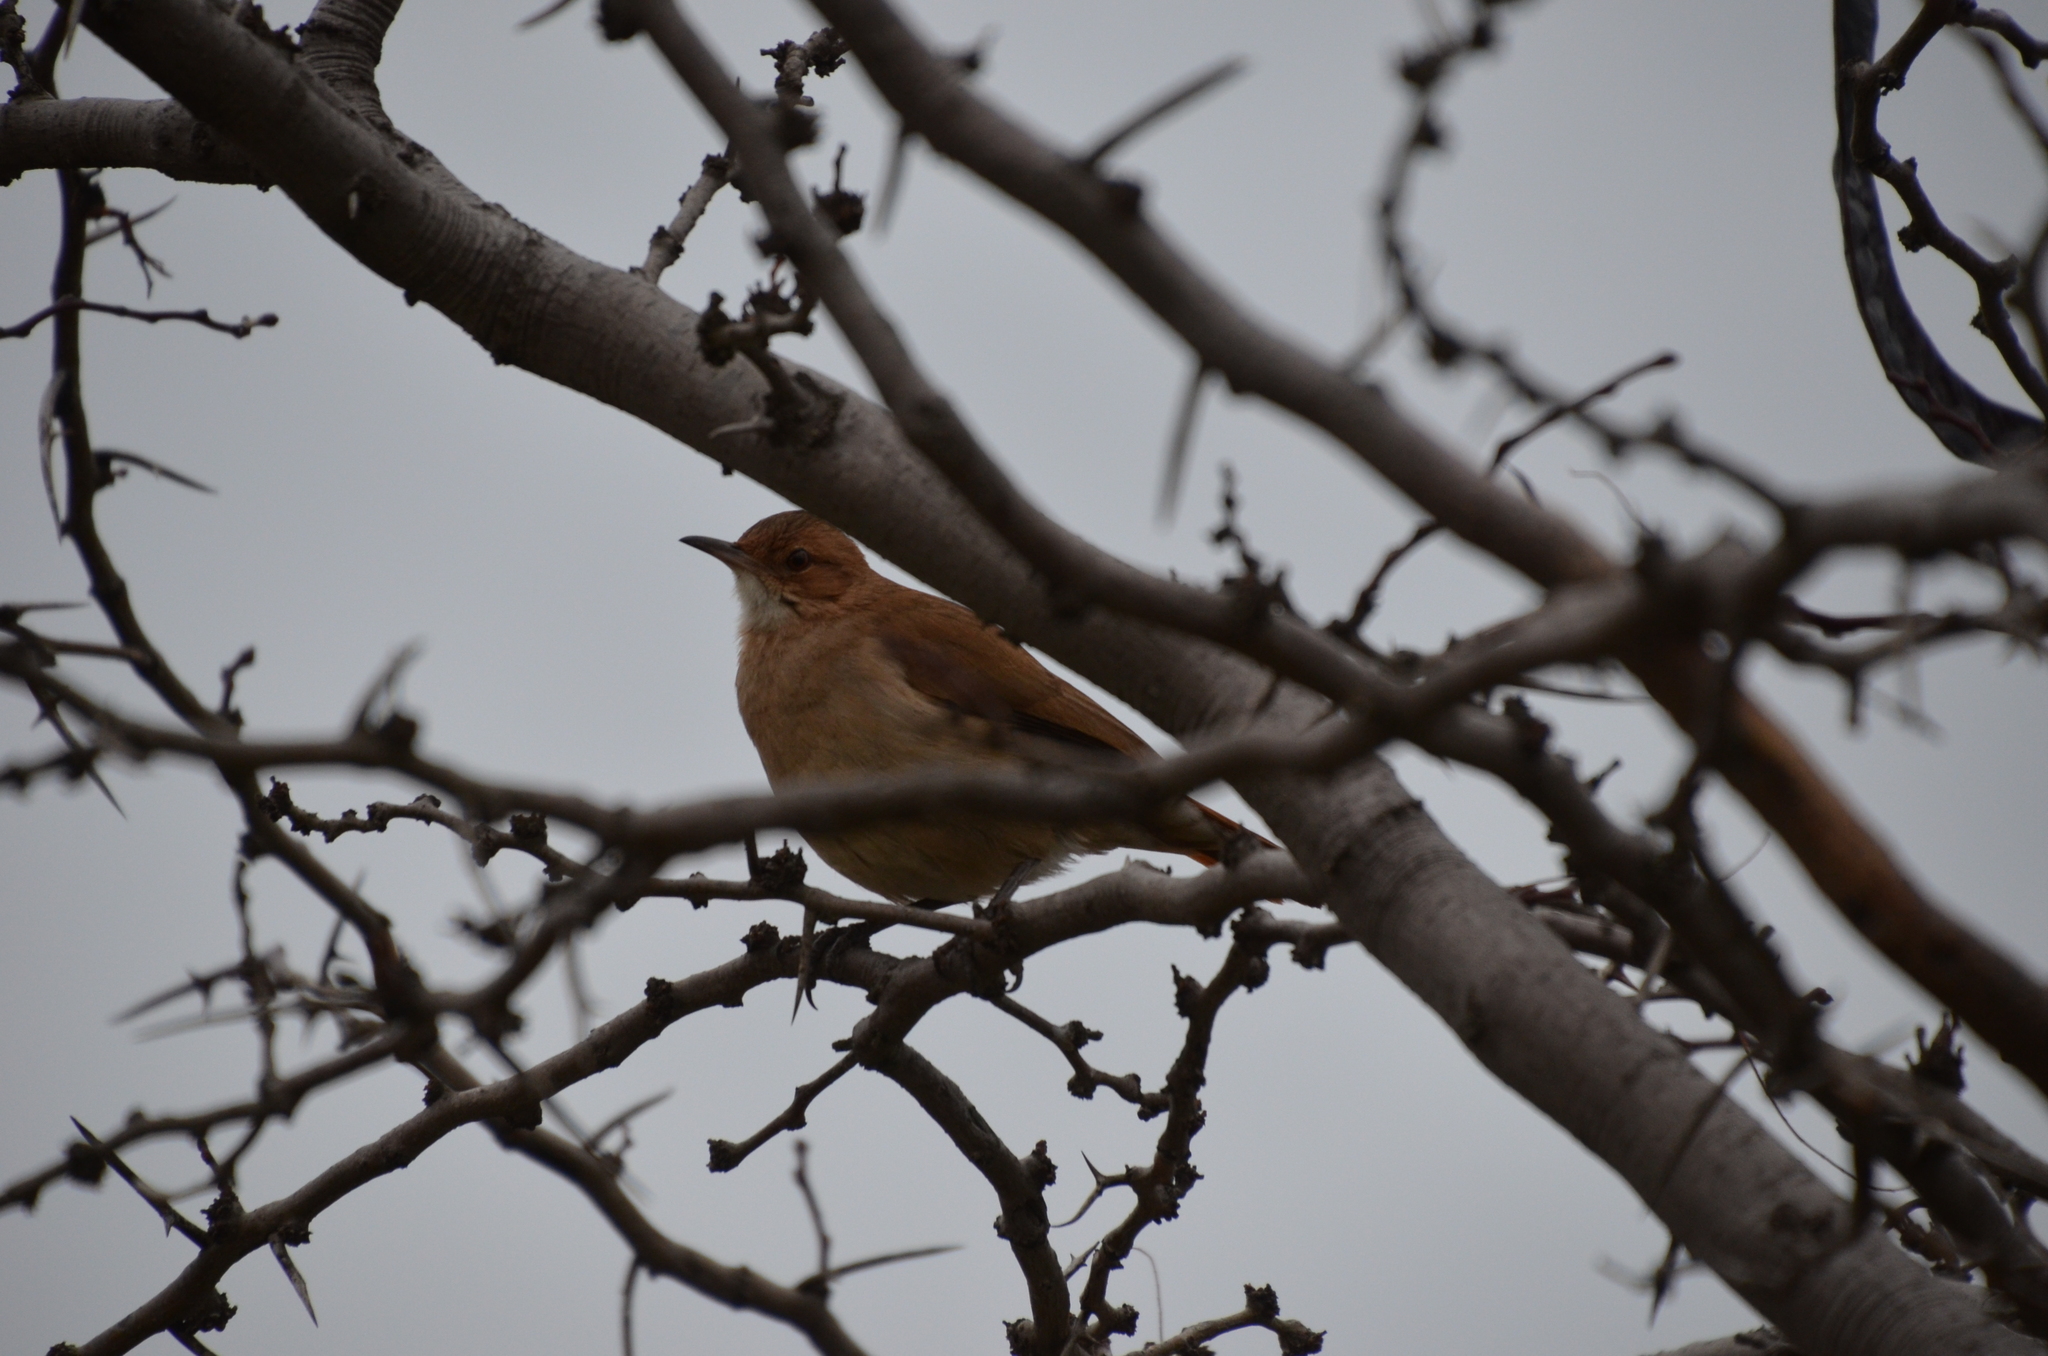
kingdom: Animalia
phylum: Chordata
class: Aves
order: Passeriformes
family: Furnariidae
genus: Furnarius
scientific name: Furnarius rufus
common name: Rufous hornero
